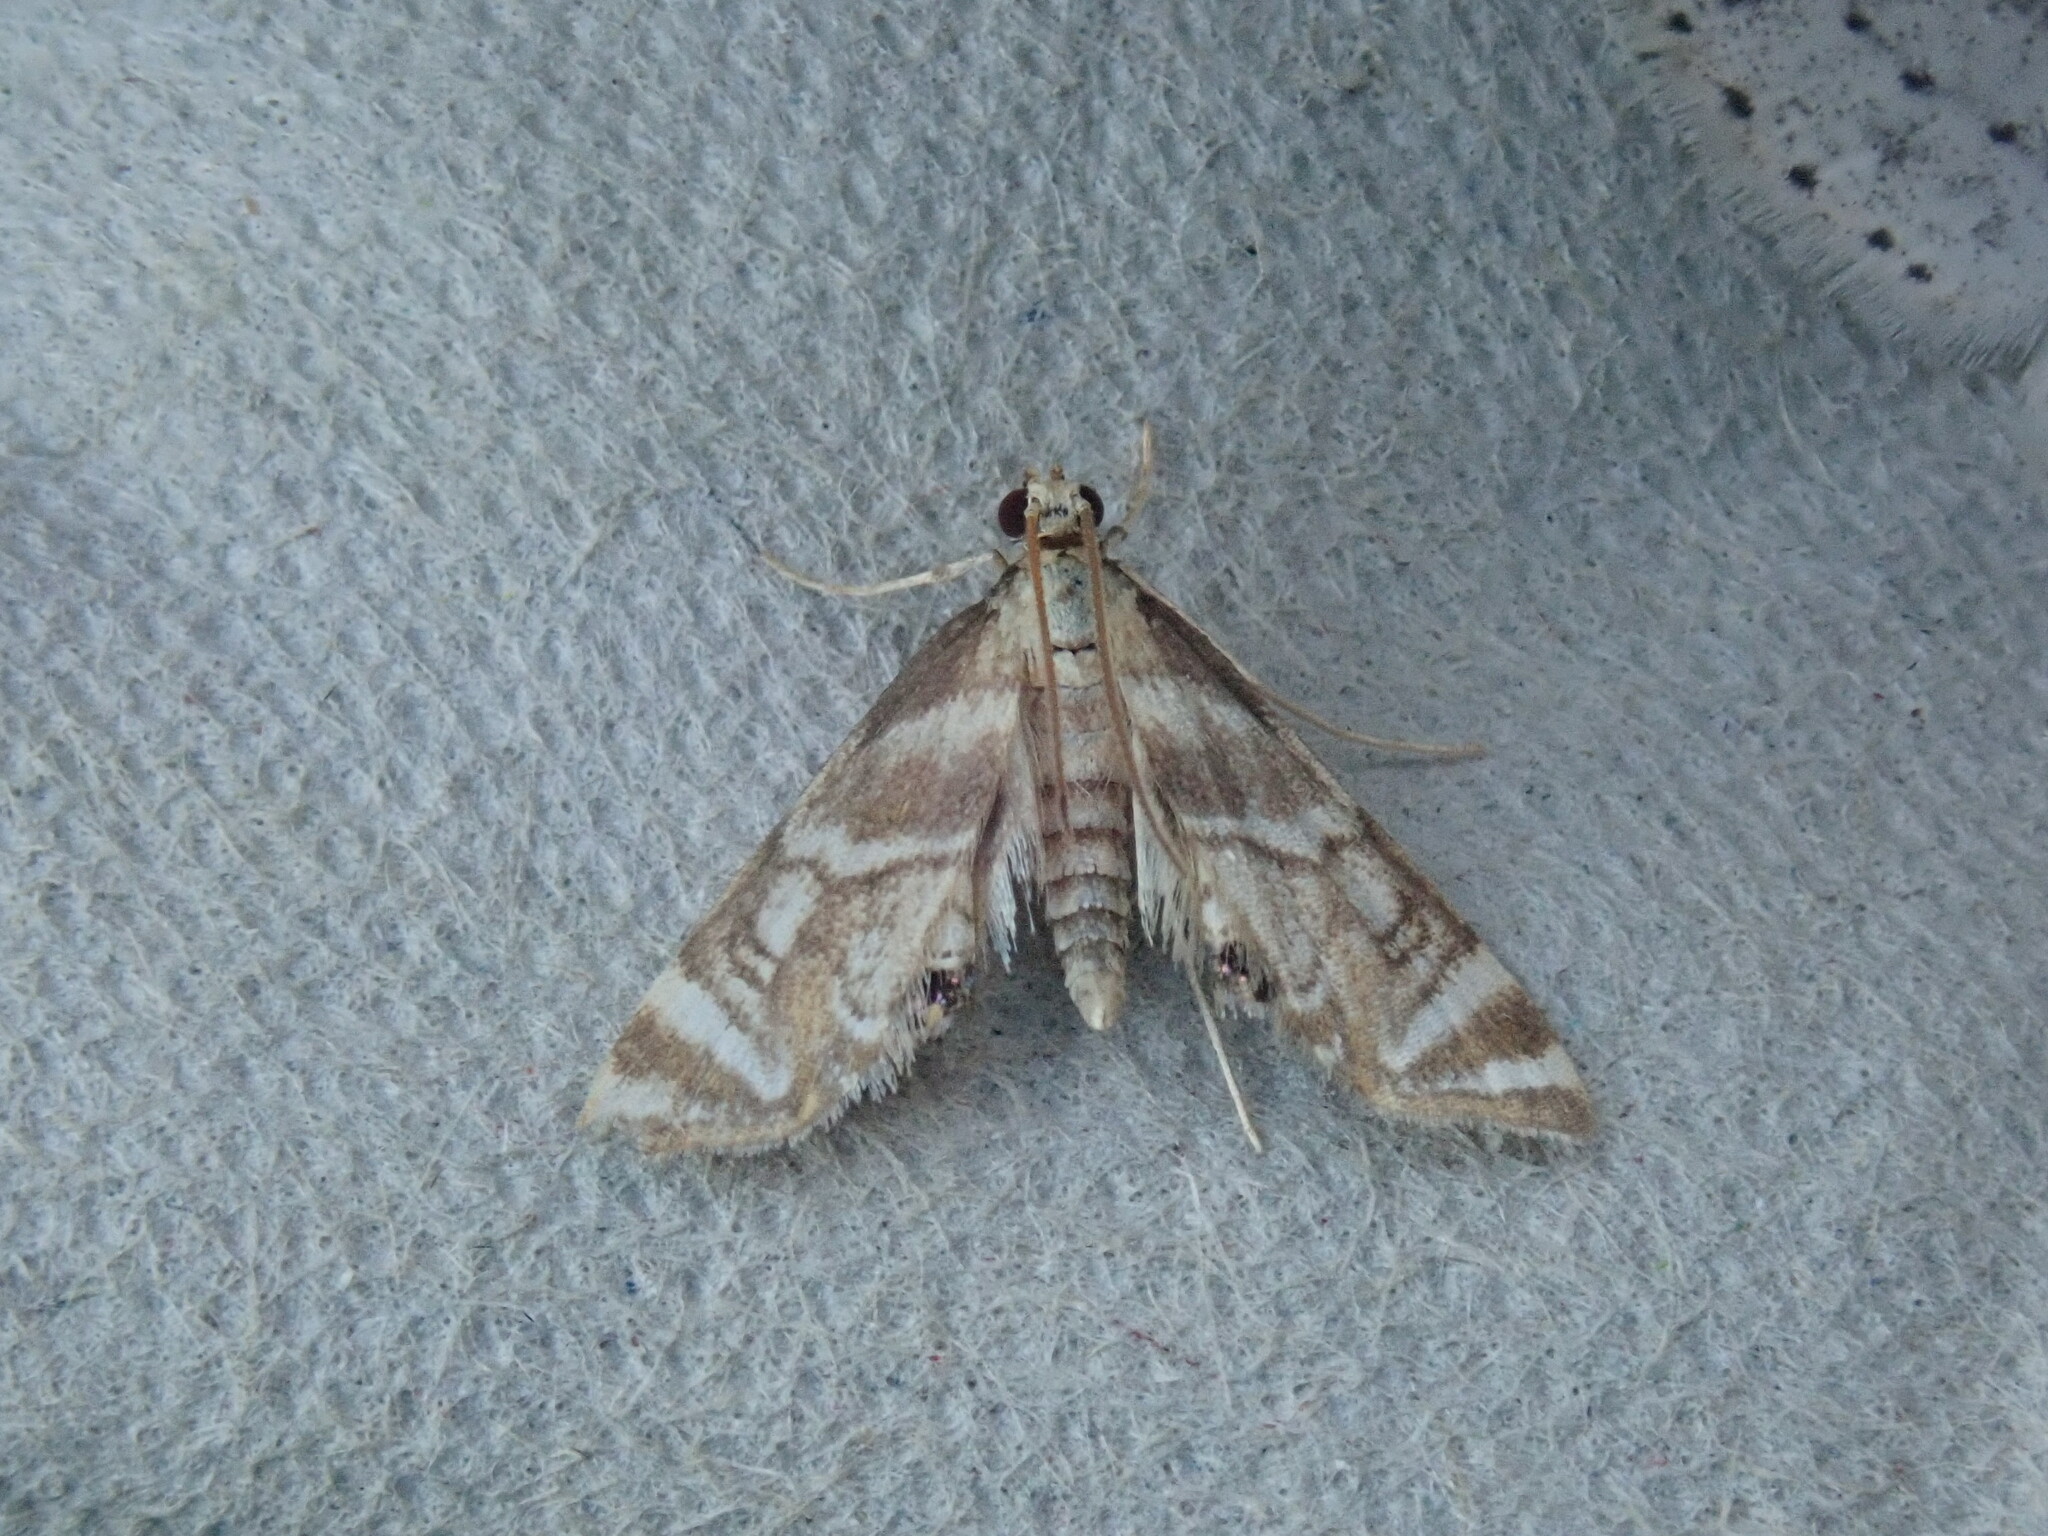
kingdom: Animalia
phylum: Arthropoda
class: Insecta
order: Lepidoptera
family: Crambidae
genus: Petrophila
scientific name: Petrophila canadensis
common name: Canadian petrophila
